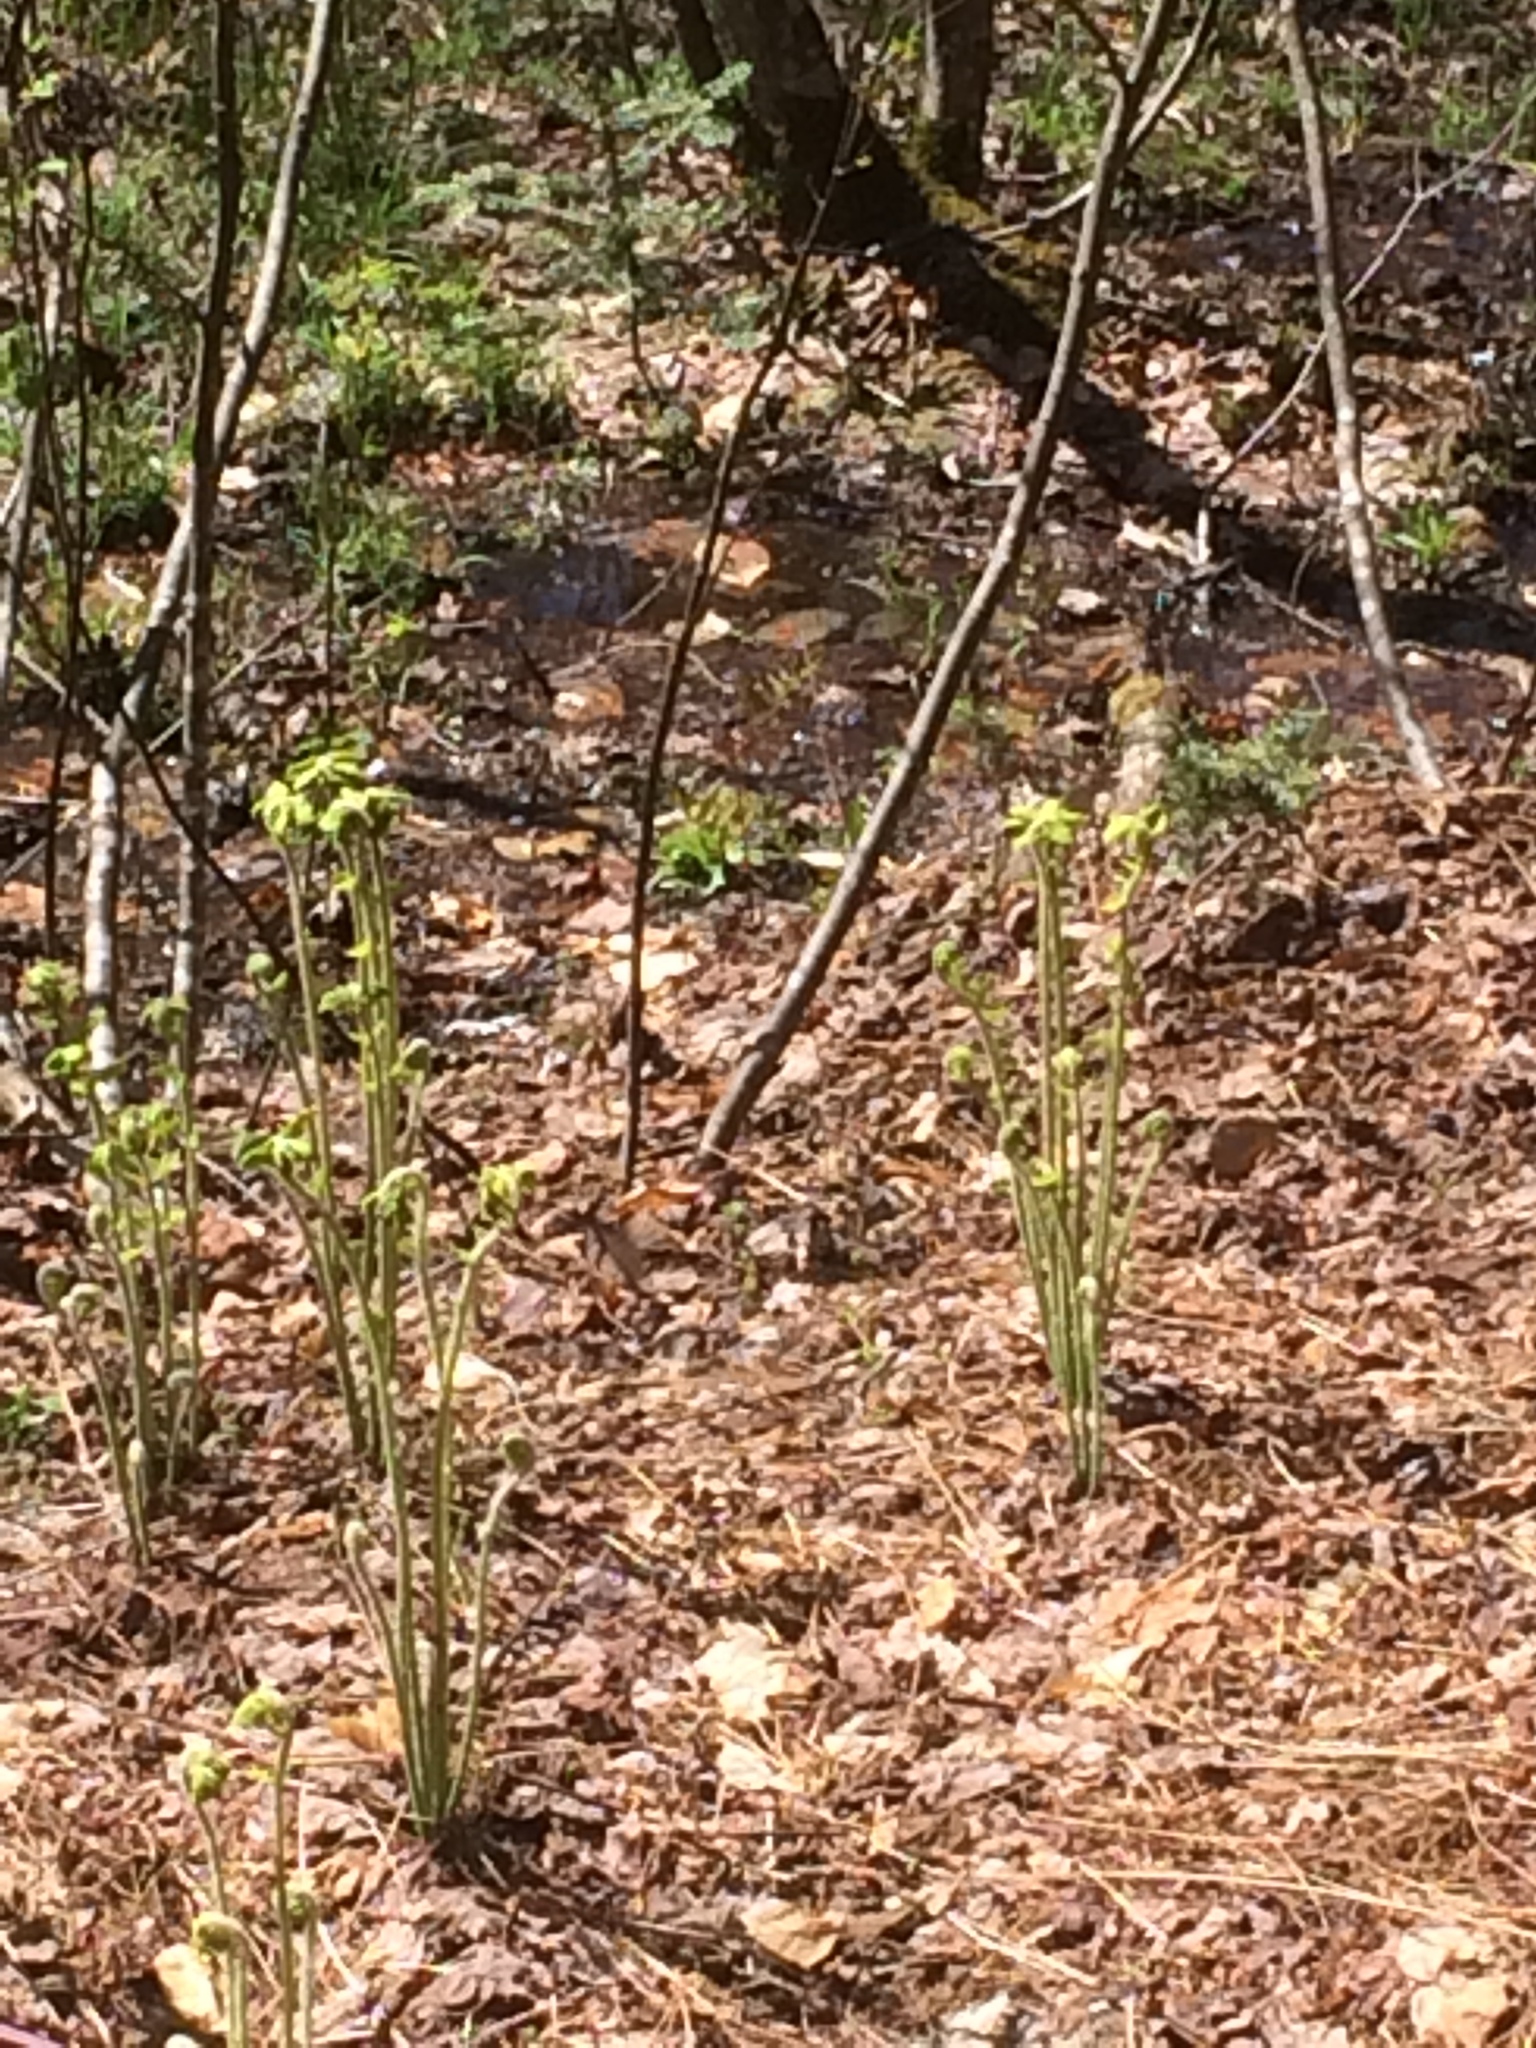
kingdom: Plantae
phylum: Tracheophyta
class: Polypodiopsida
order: Osmundales
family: Osmundaceae
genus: Claytosmunda
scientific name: Claytosmunda claytoniana
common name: Clayton's fern
